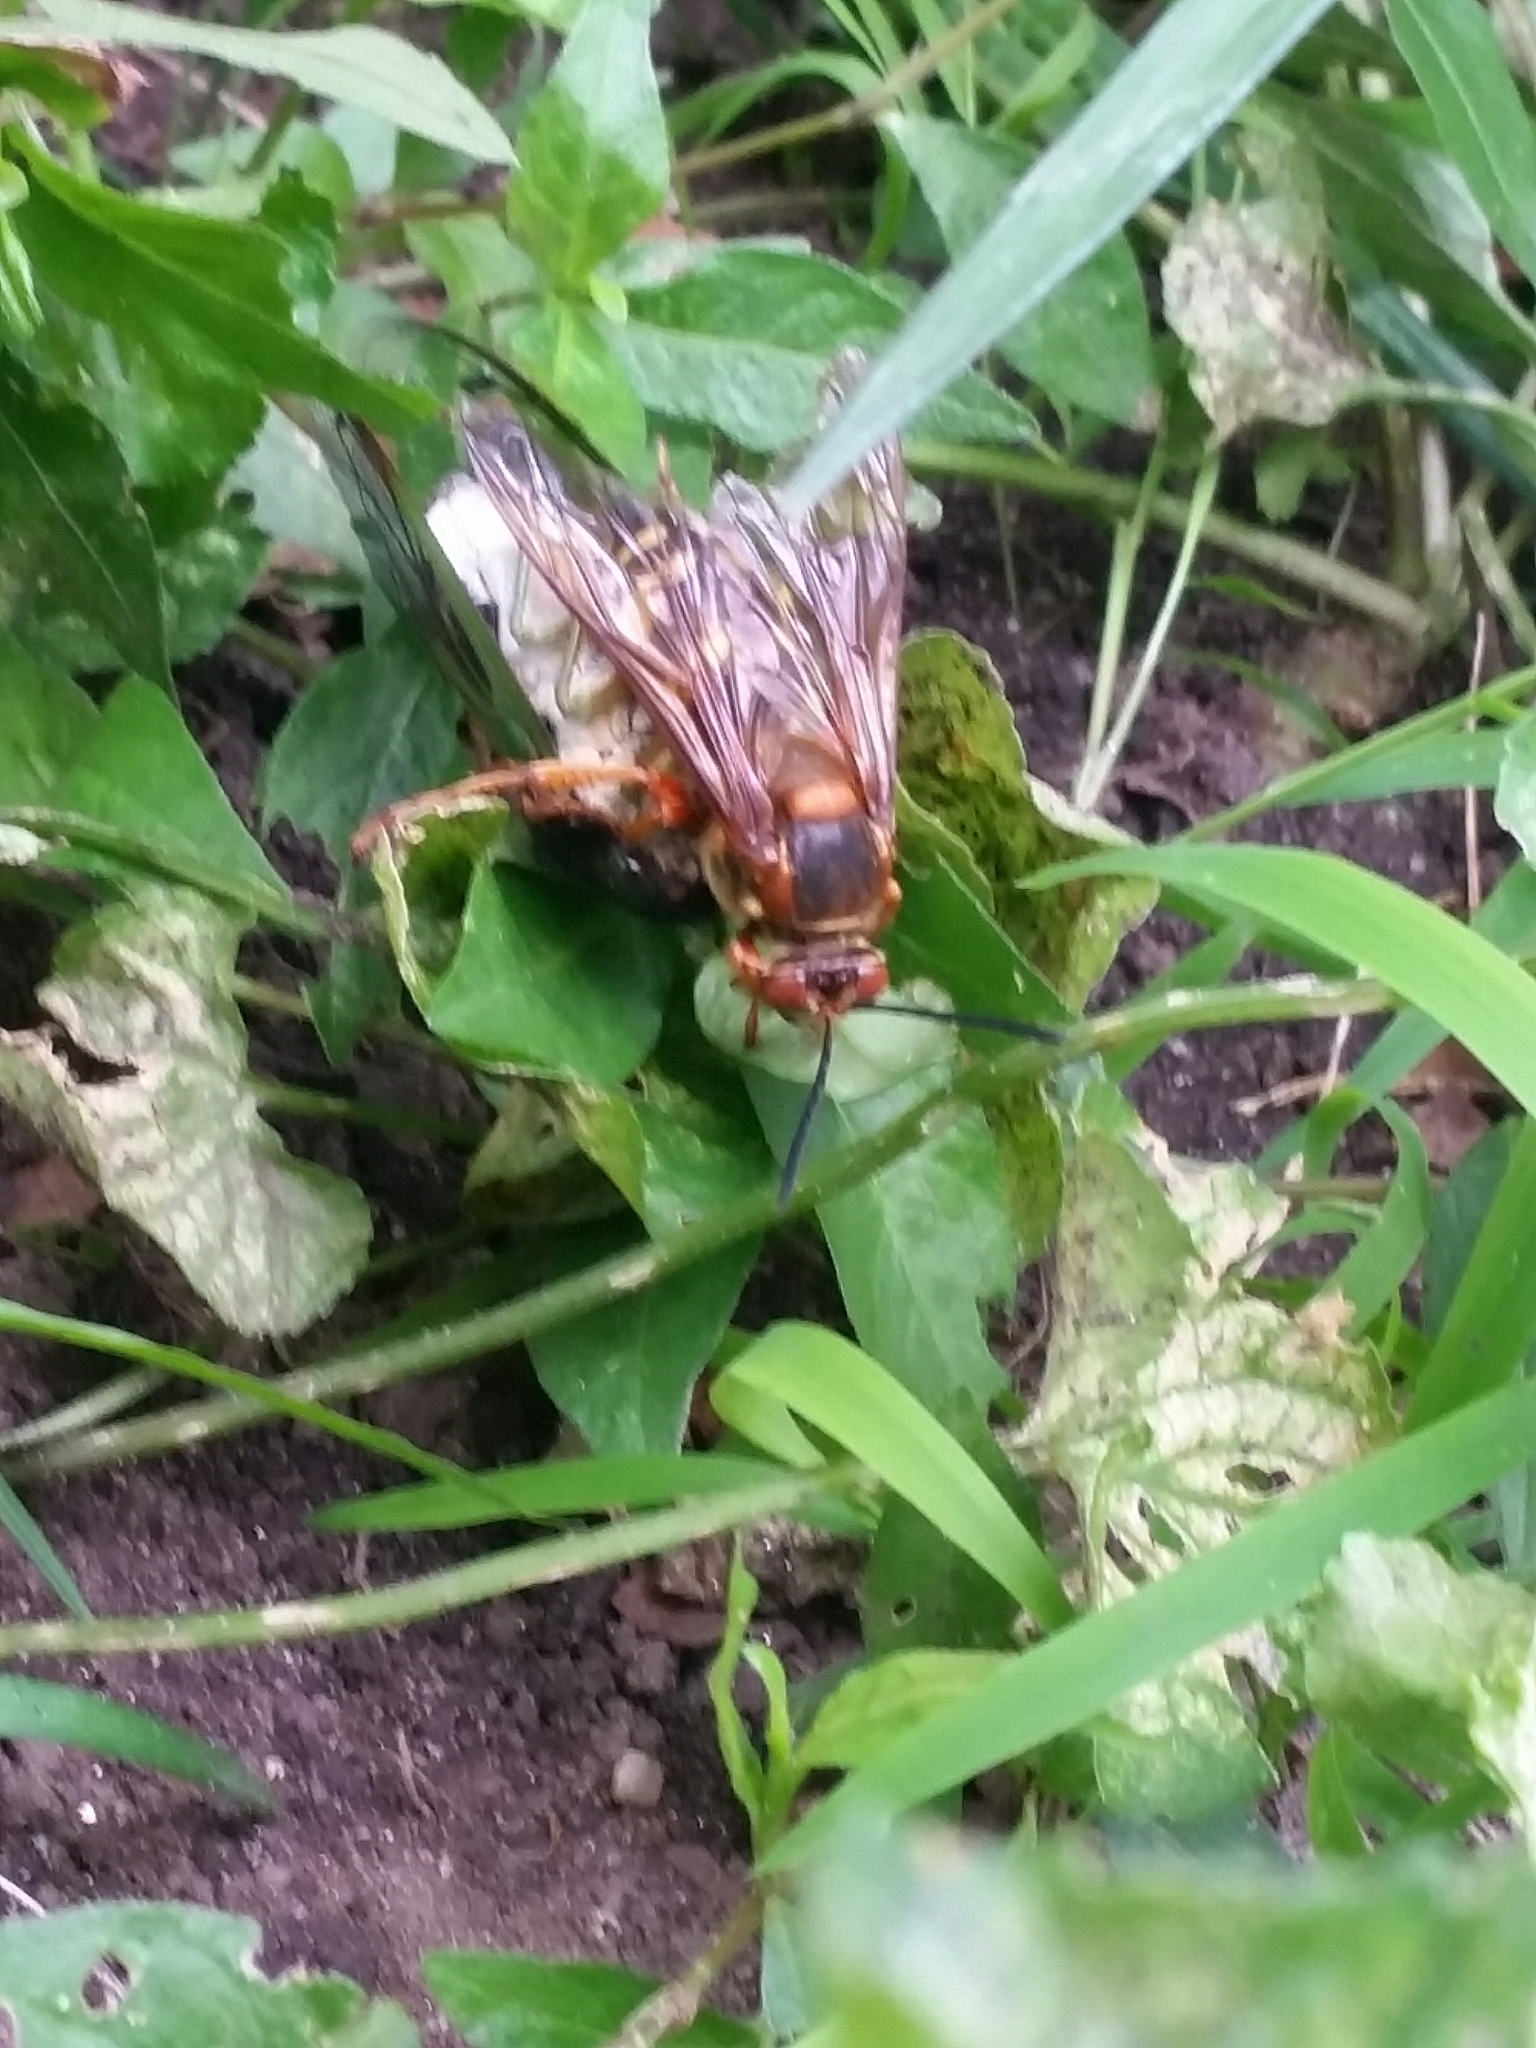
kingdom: Animalia
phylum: Arthropoda
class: Insecta
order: Hymenoptera
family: Crabronidae
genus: Sphecius
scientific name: Sphecius speciosus
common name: Cicada killer
